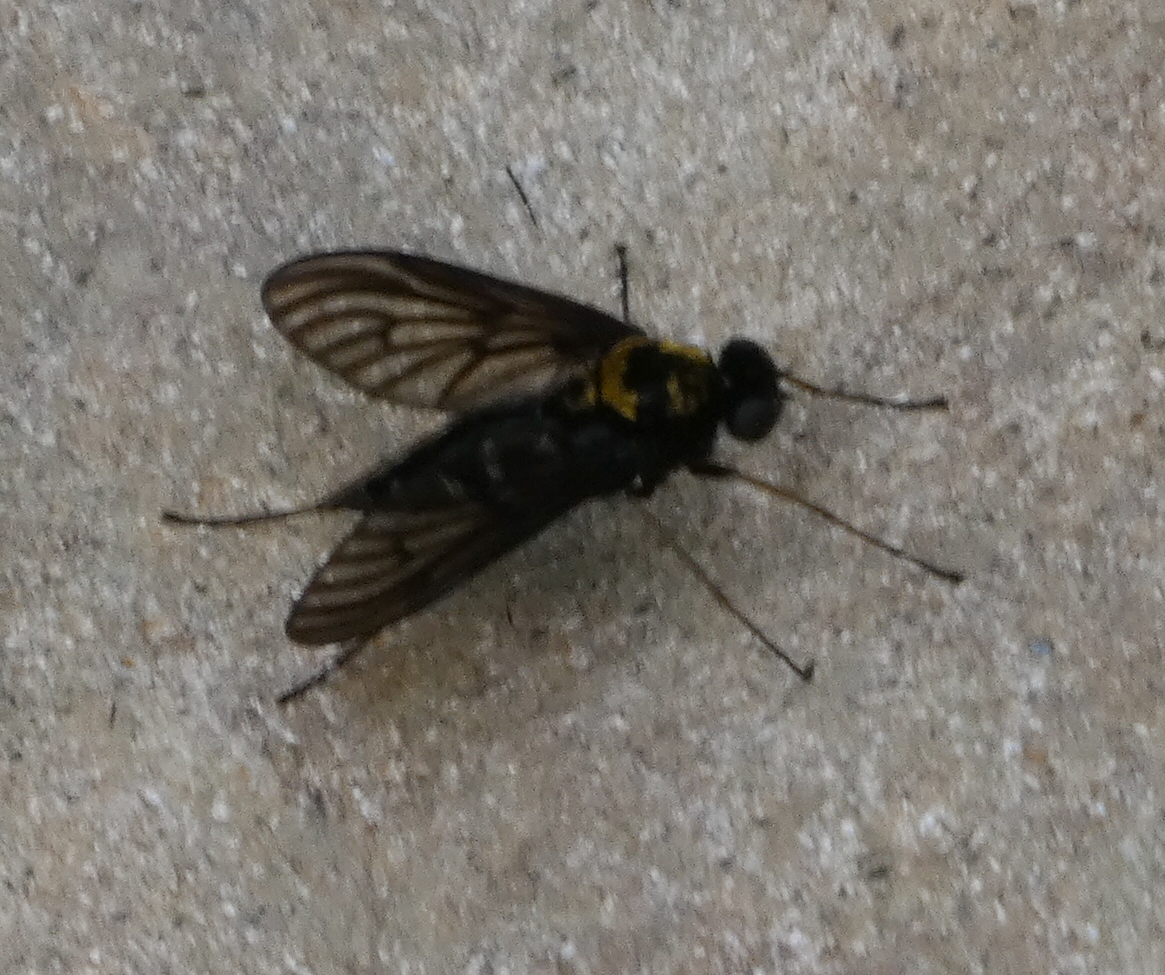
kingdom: Animalia
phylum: Arthropoda
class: Insecta
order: Diptera
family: Rhagionidae
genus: Chrysopilus
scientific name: Chrysopilus thoracicus
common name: Golden-backed snipe fly
